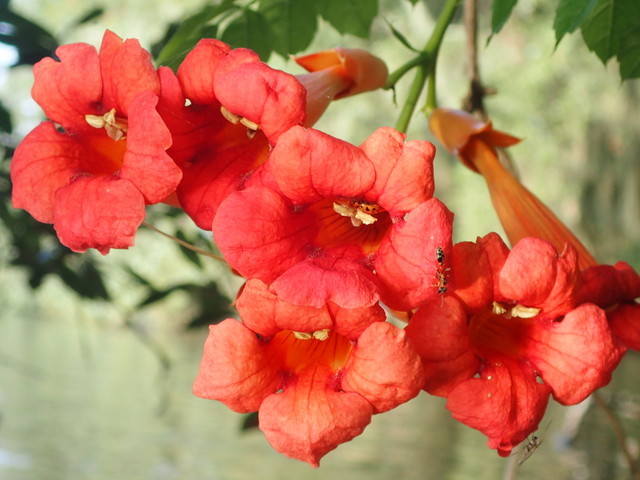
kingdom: Plantae
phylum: Tracheophyta
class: Magnoliopsida
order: Lamiales
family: Bignoniaceae
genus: Campsis
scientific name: Campsis radicans
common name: Trumpet-creeper
